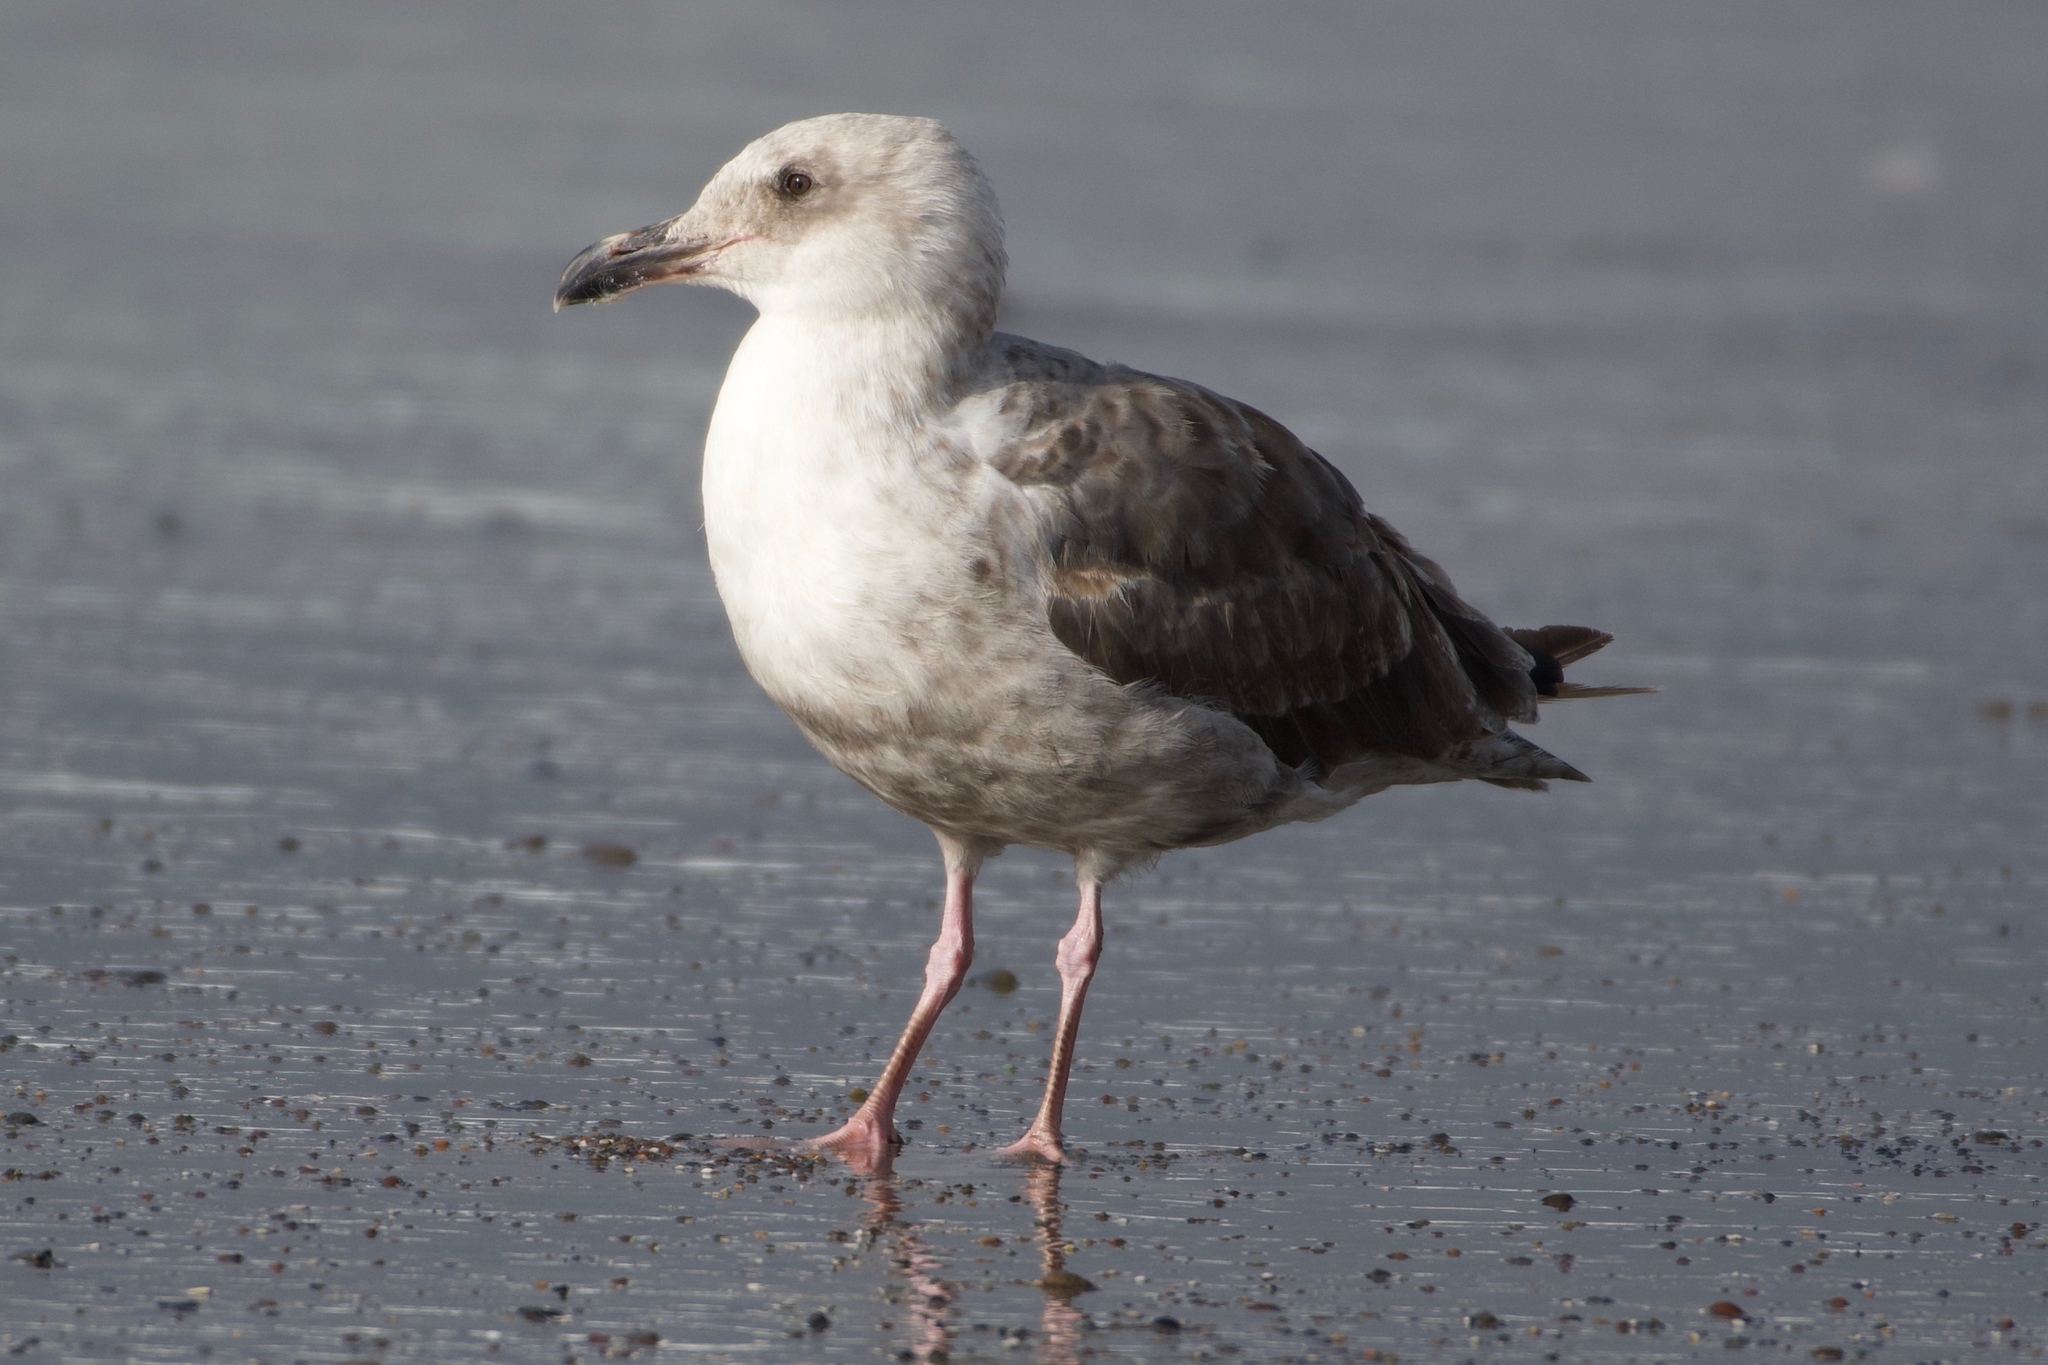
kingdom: Animalia
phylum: Chordata
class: Aves
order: Charadriiformes
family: Laridae
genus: Larus
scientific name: Larus occidentalis
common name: Western gull
